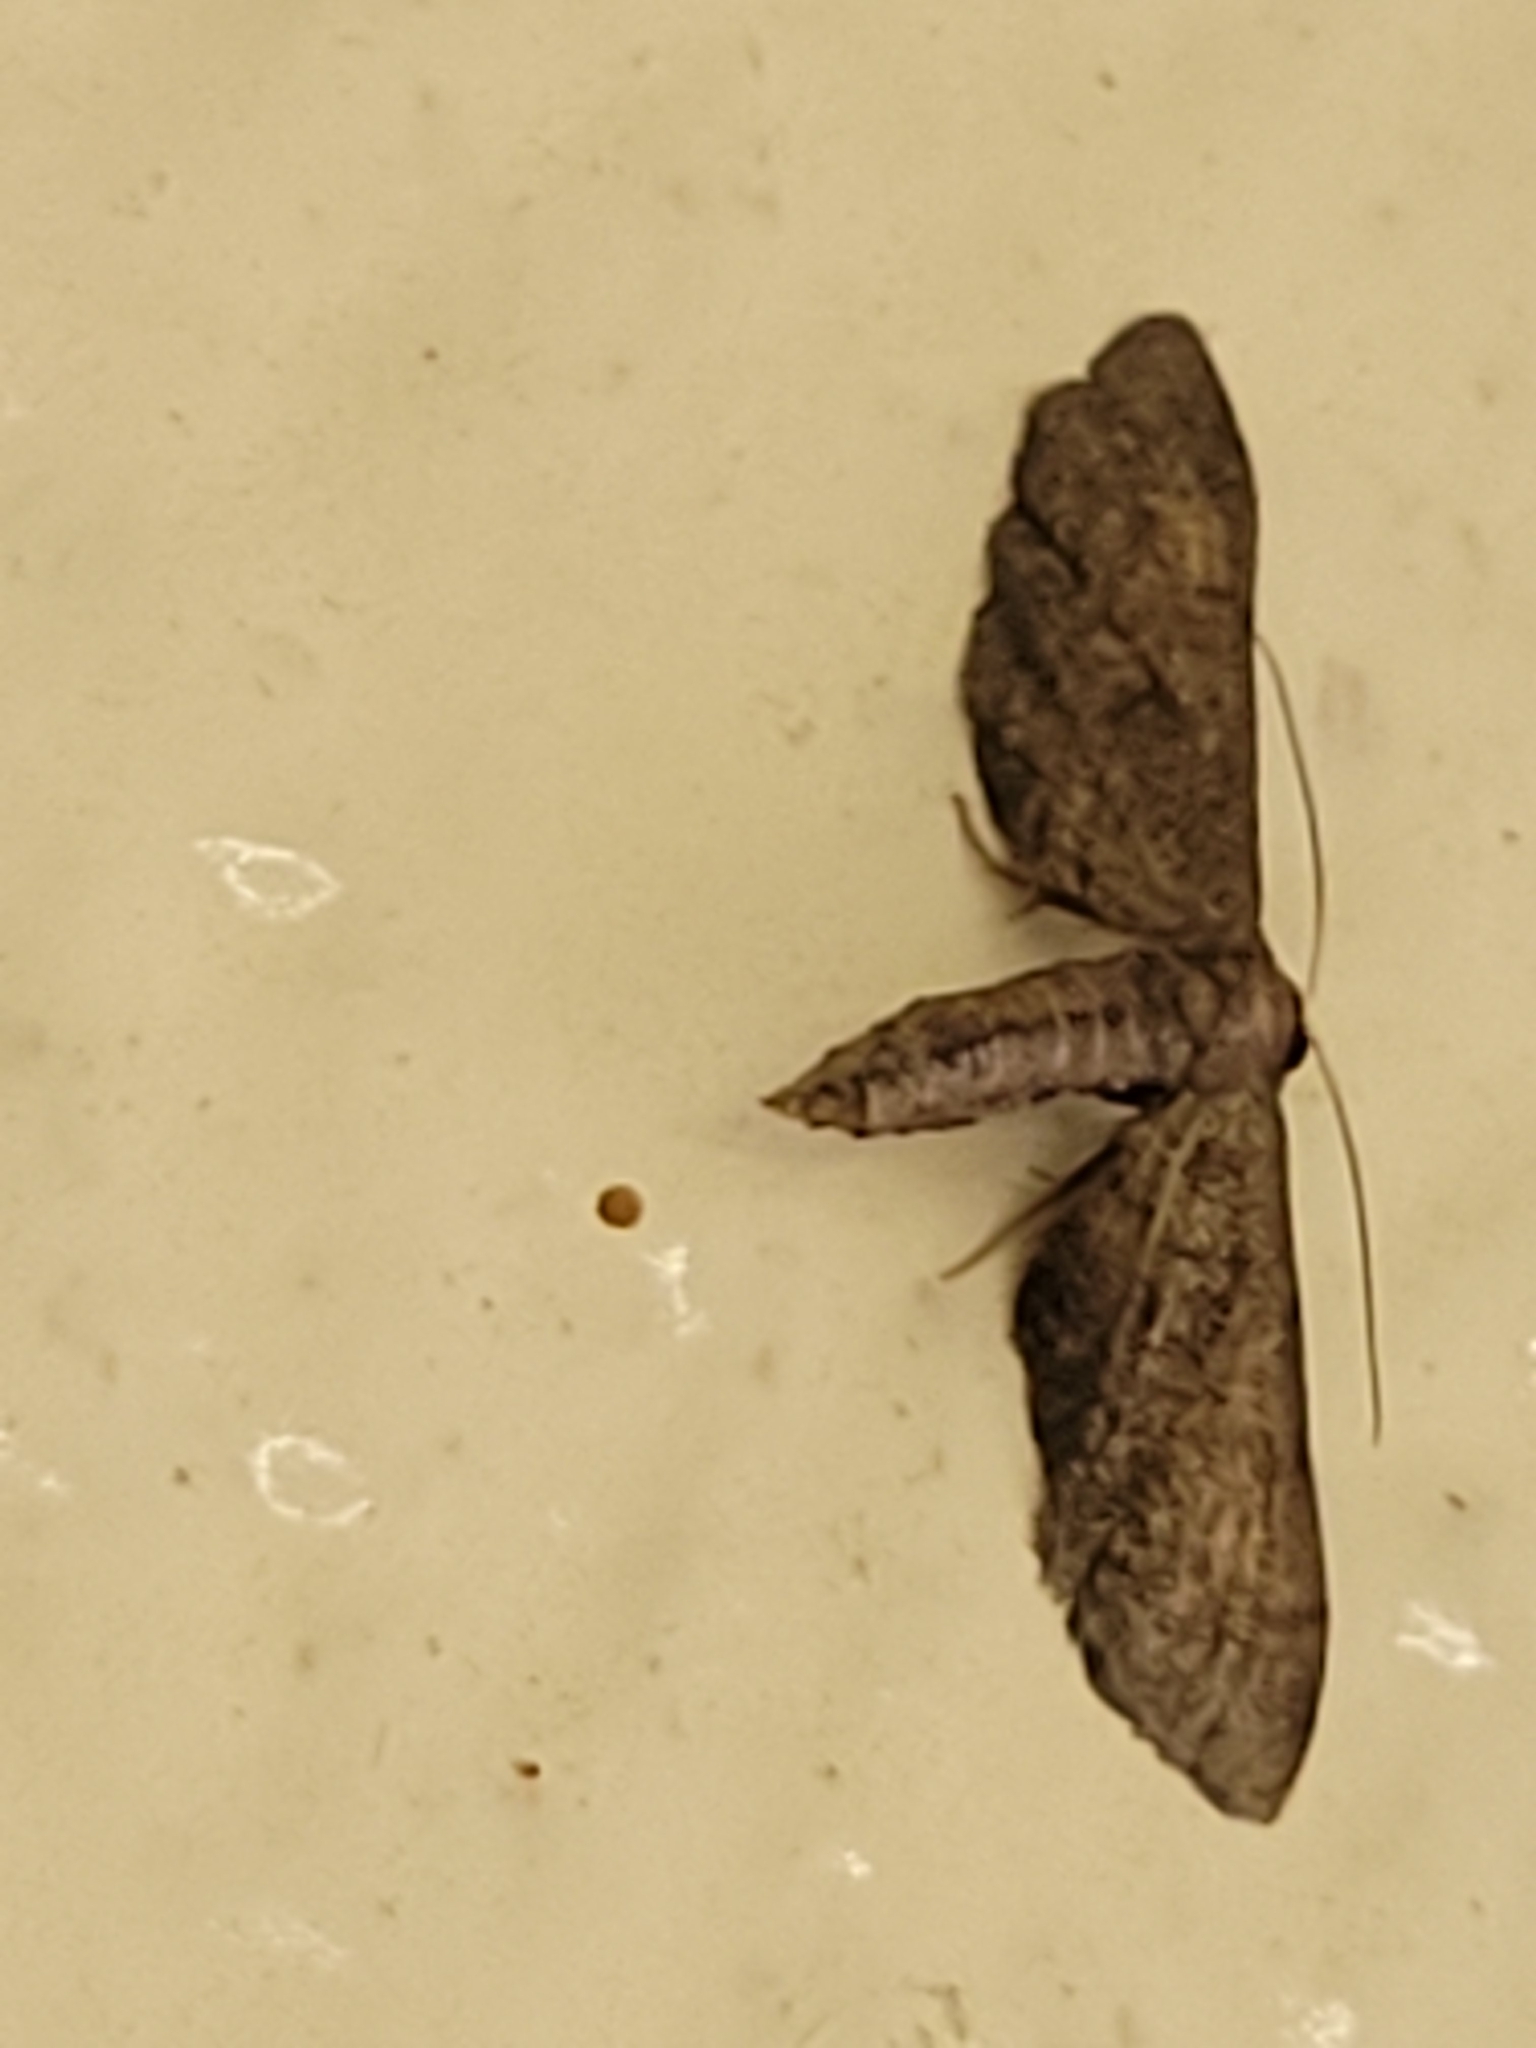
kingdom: Animalia
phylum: Arthropoda
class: Insecta
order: Lepidoptera
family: Geometridae
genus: Protoproutia
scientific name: Protoproutia laredoata
